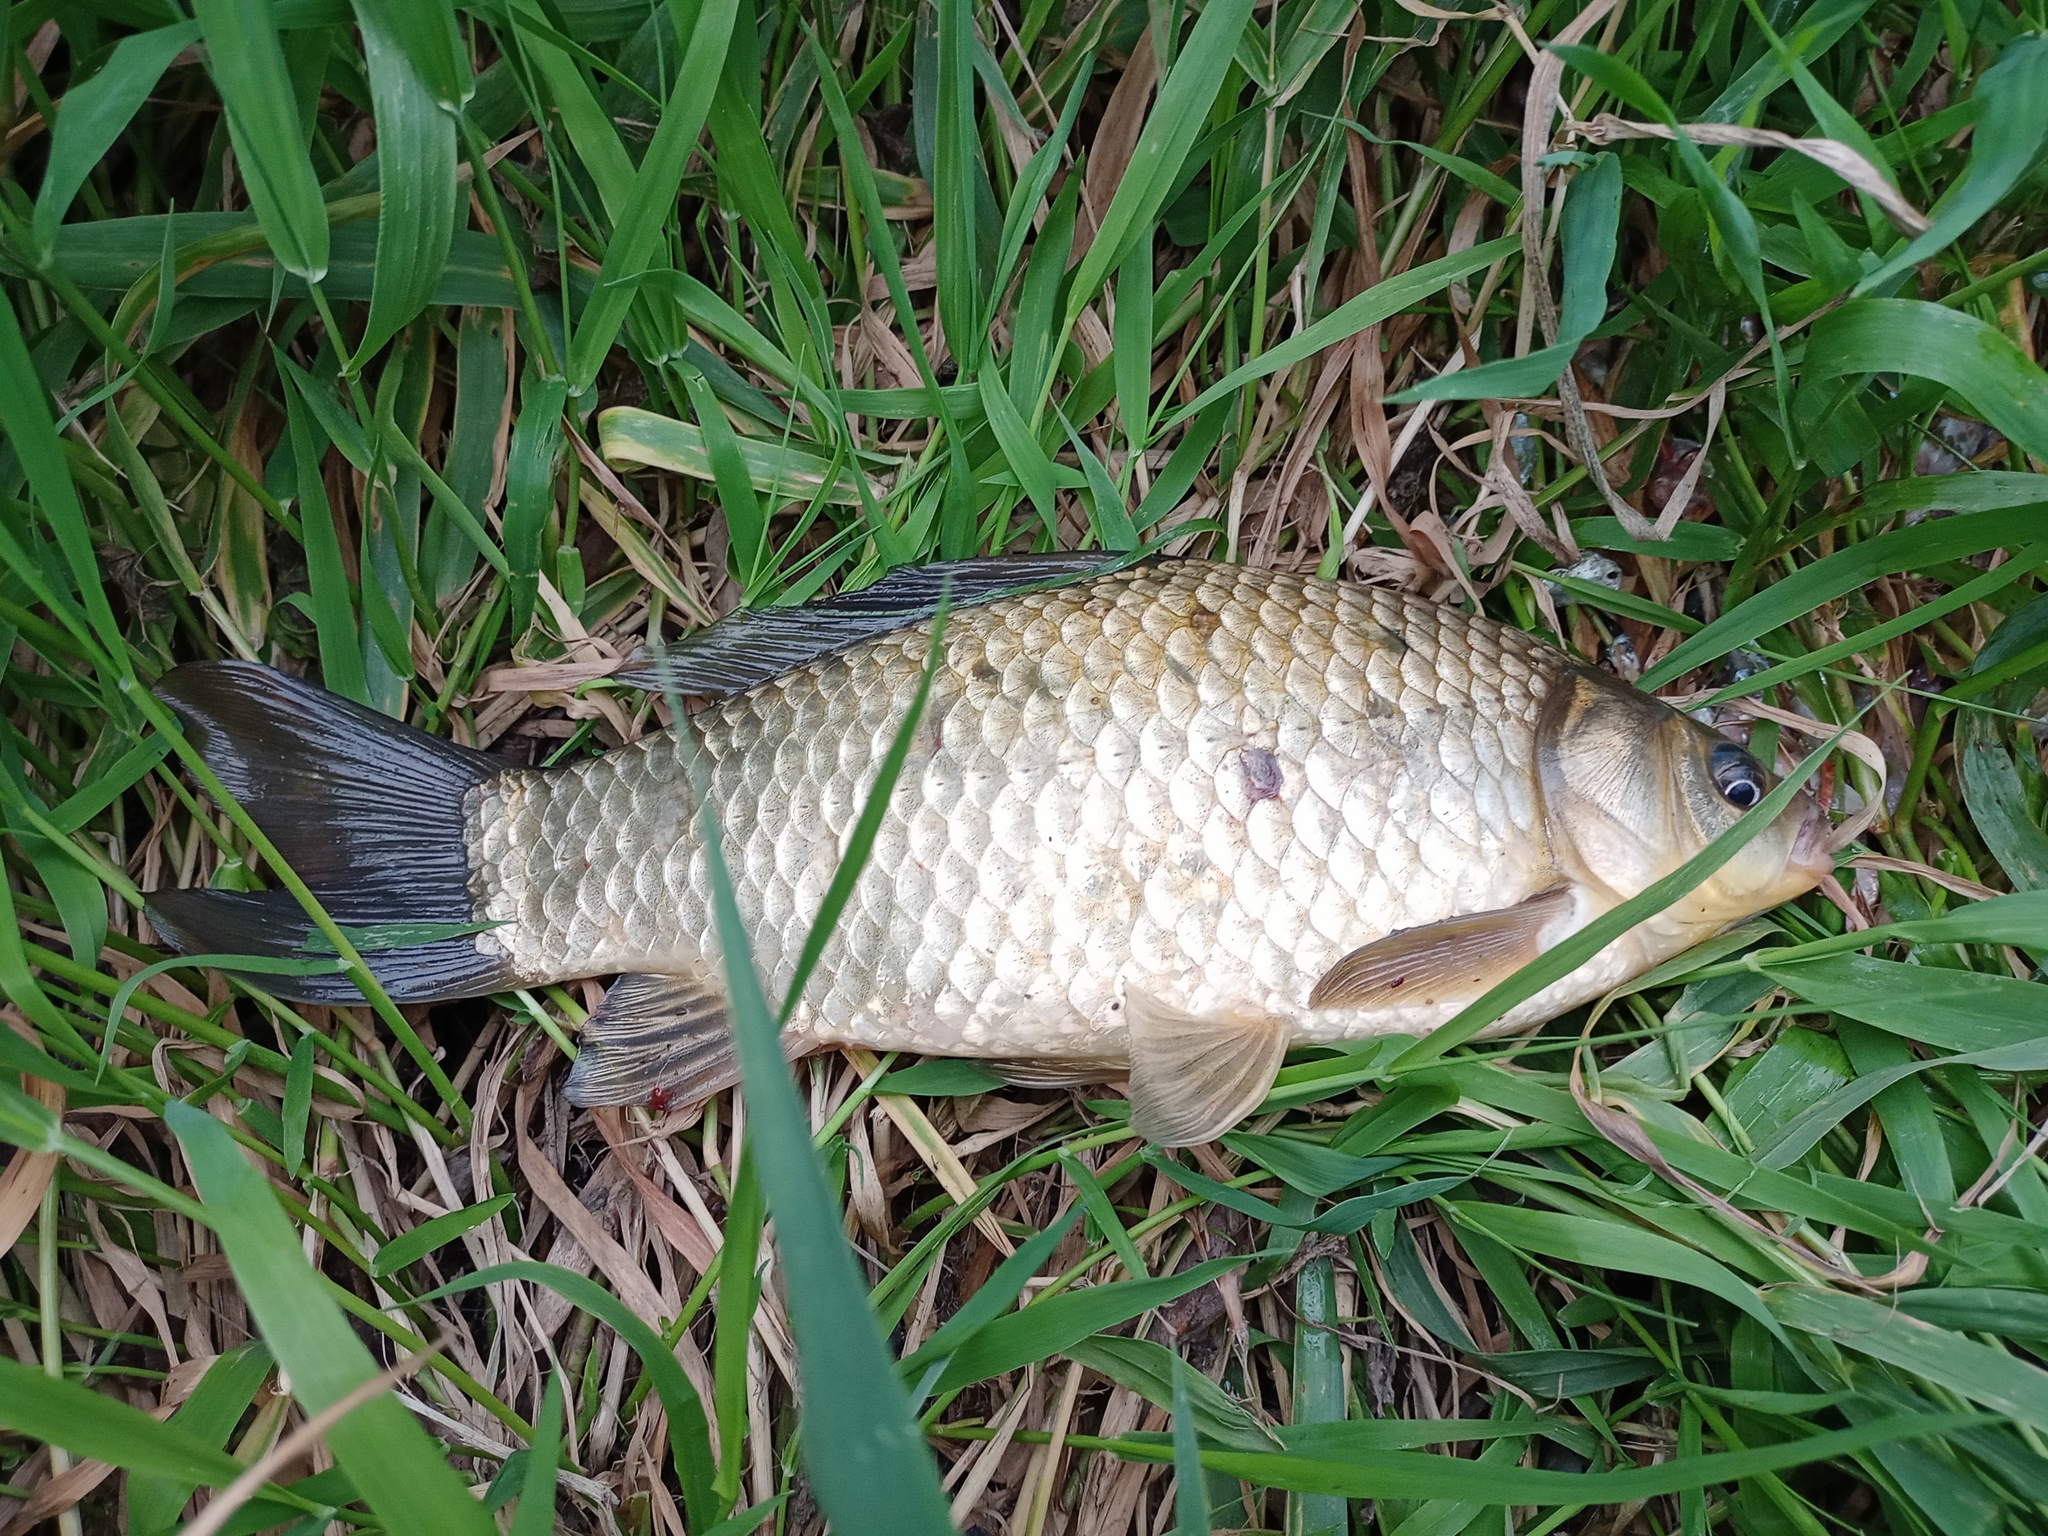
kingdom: Animalia
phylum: Chordata
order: Cypriniformes
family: Cyprinidae
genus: Carassius
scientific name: Carassius gibelio
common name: Prussian carp
